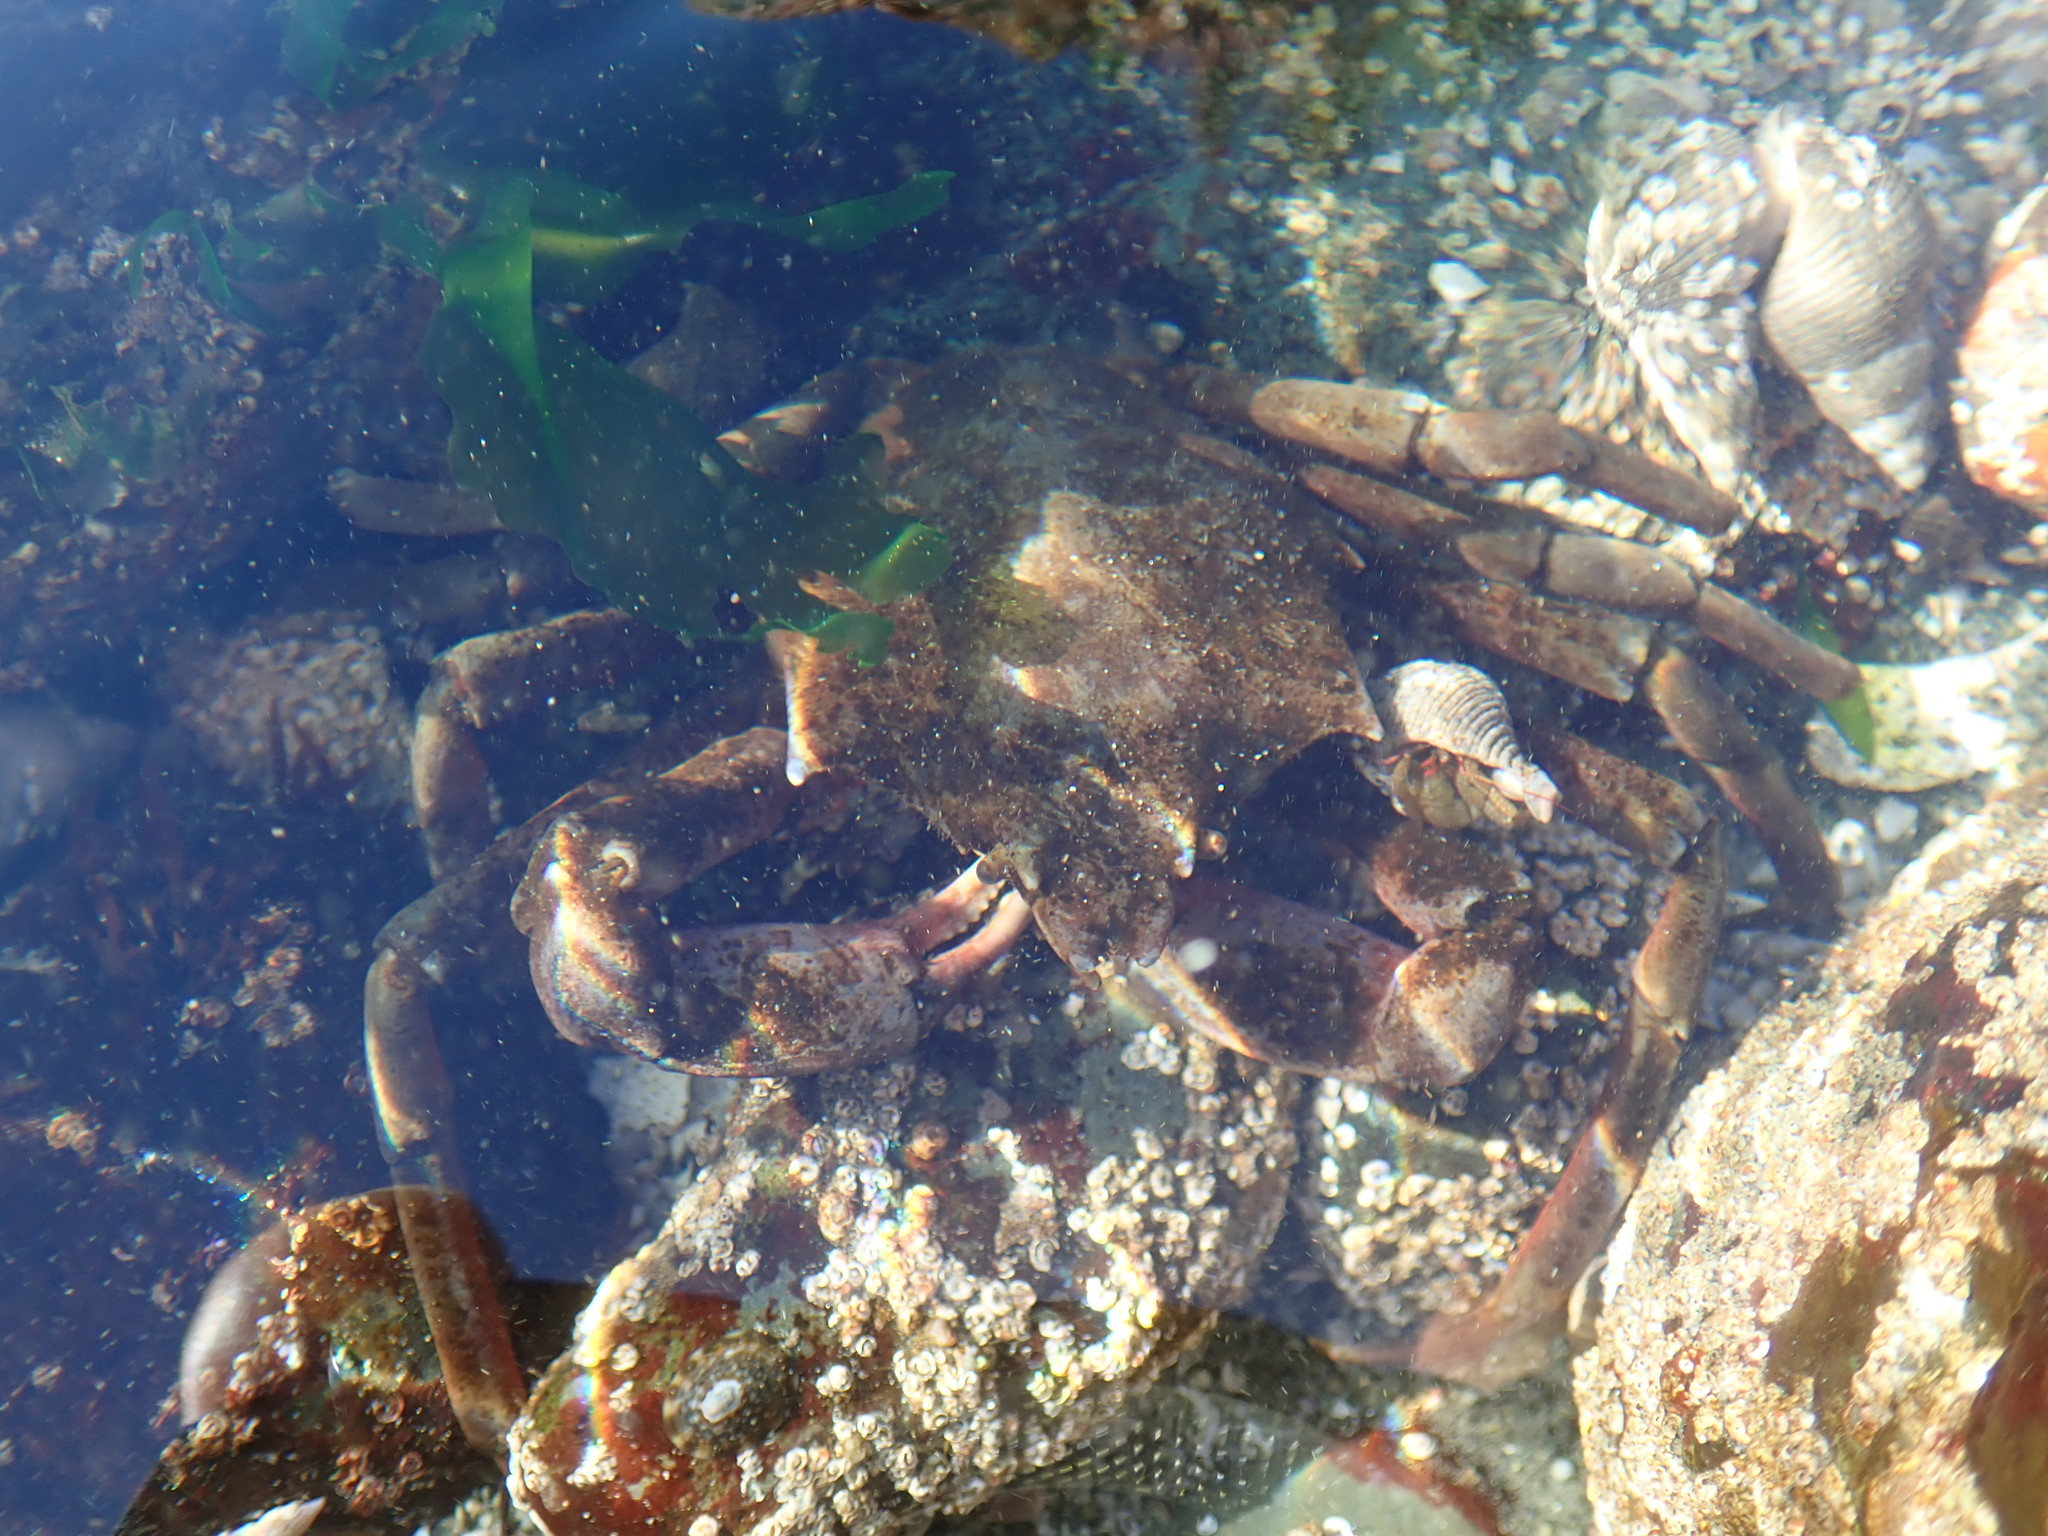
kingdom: Animalia
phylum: Arthropoda
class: Malacostraca
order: Decapoda
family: Epialtidae
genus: Pugettia
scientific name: Pugettia producta
